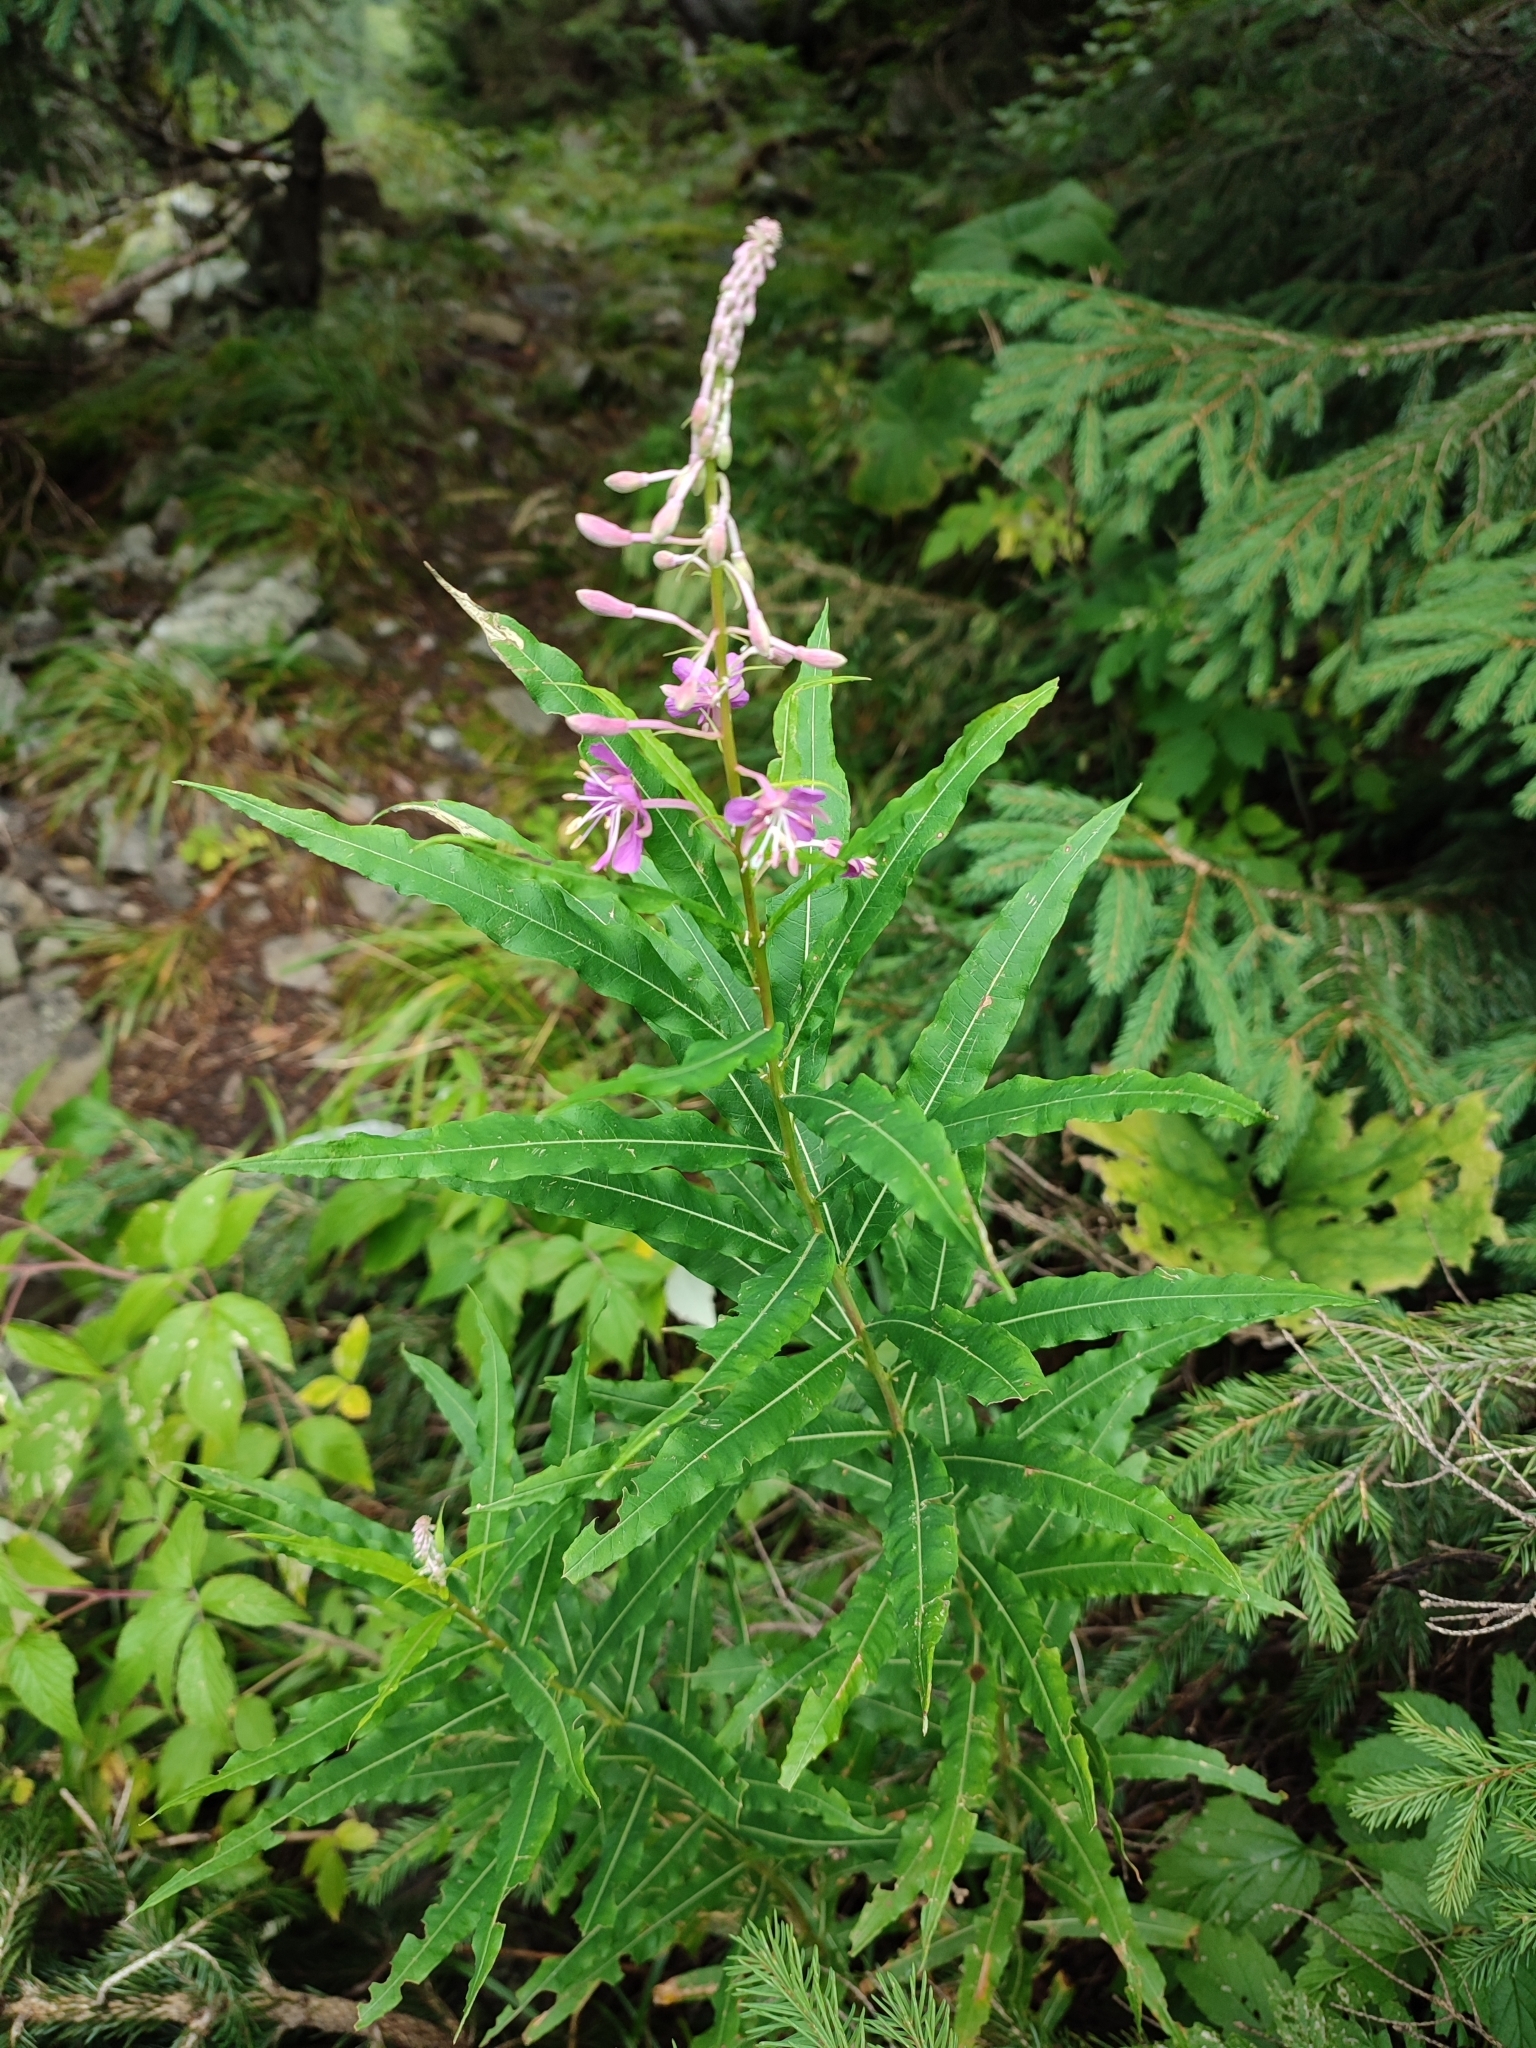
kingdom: Plantae
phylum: Tracheophyta
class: Magnoliopsida
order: Myrtales
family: Onagraceae
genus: Chamaenerion
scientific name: Chamaenerion angustifolium
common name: Fireweed
